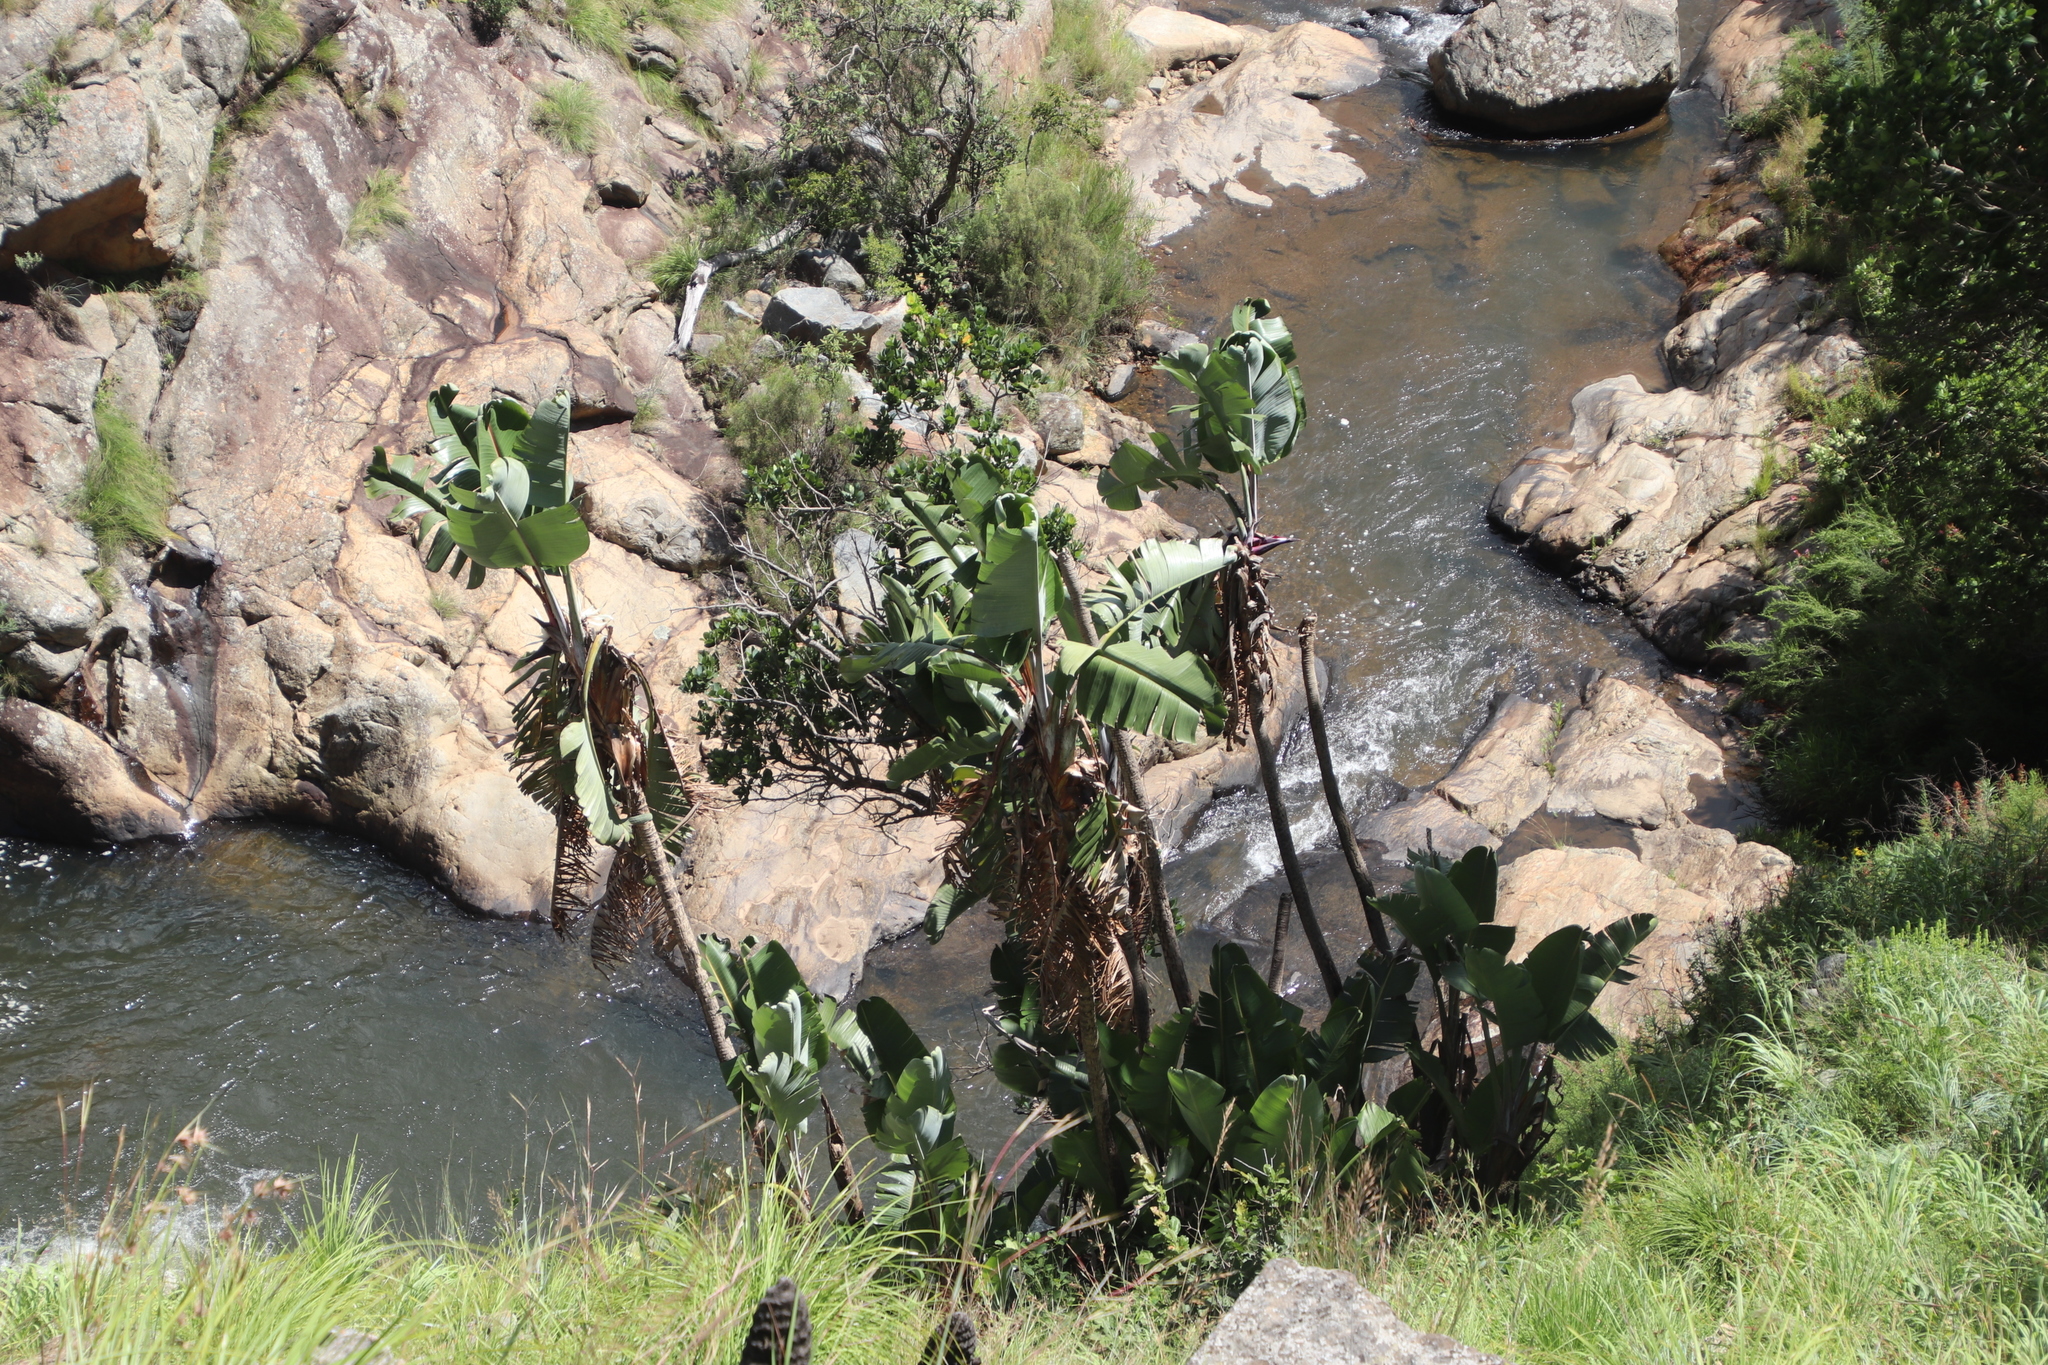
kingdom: Plantae
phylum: Tracheophyta
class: Liliopsida
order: Zingiberales
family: Strelitziaceae
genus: Strelitzia
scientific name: Strelitzia caudata
